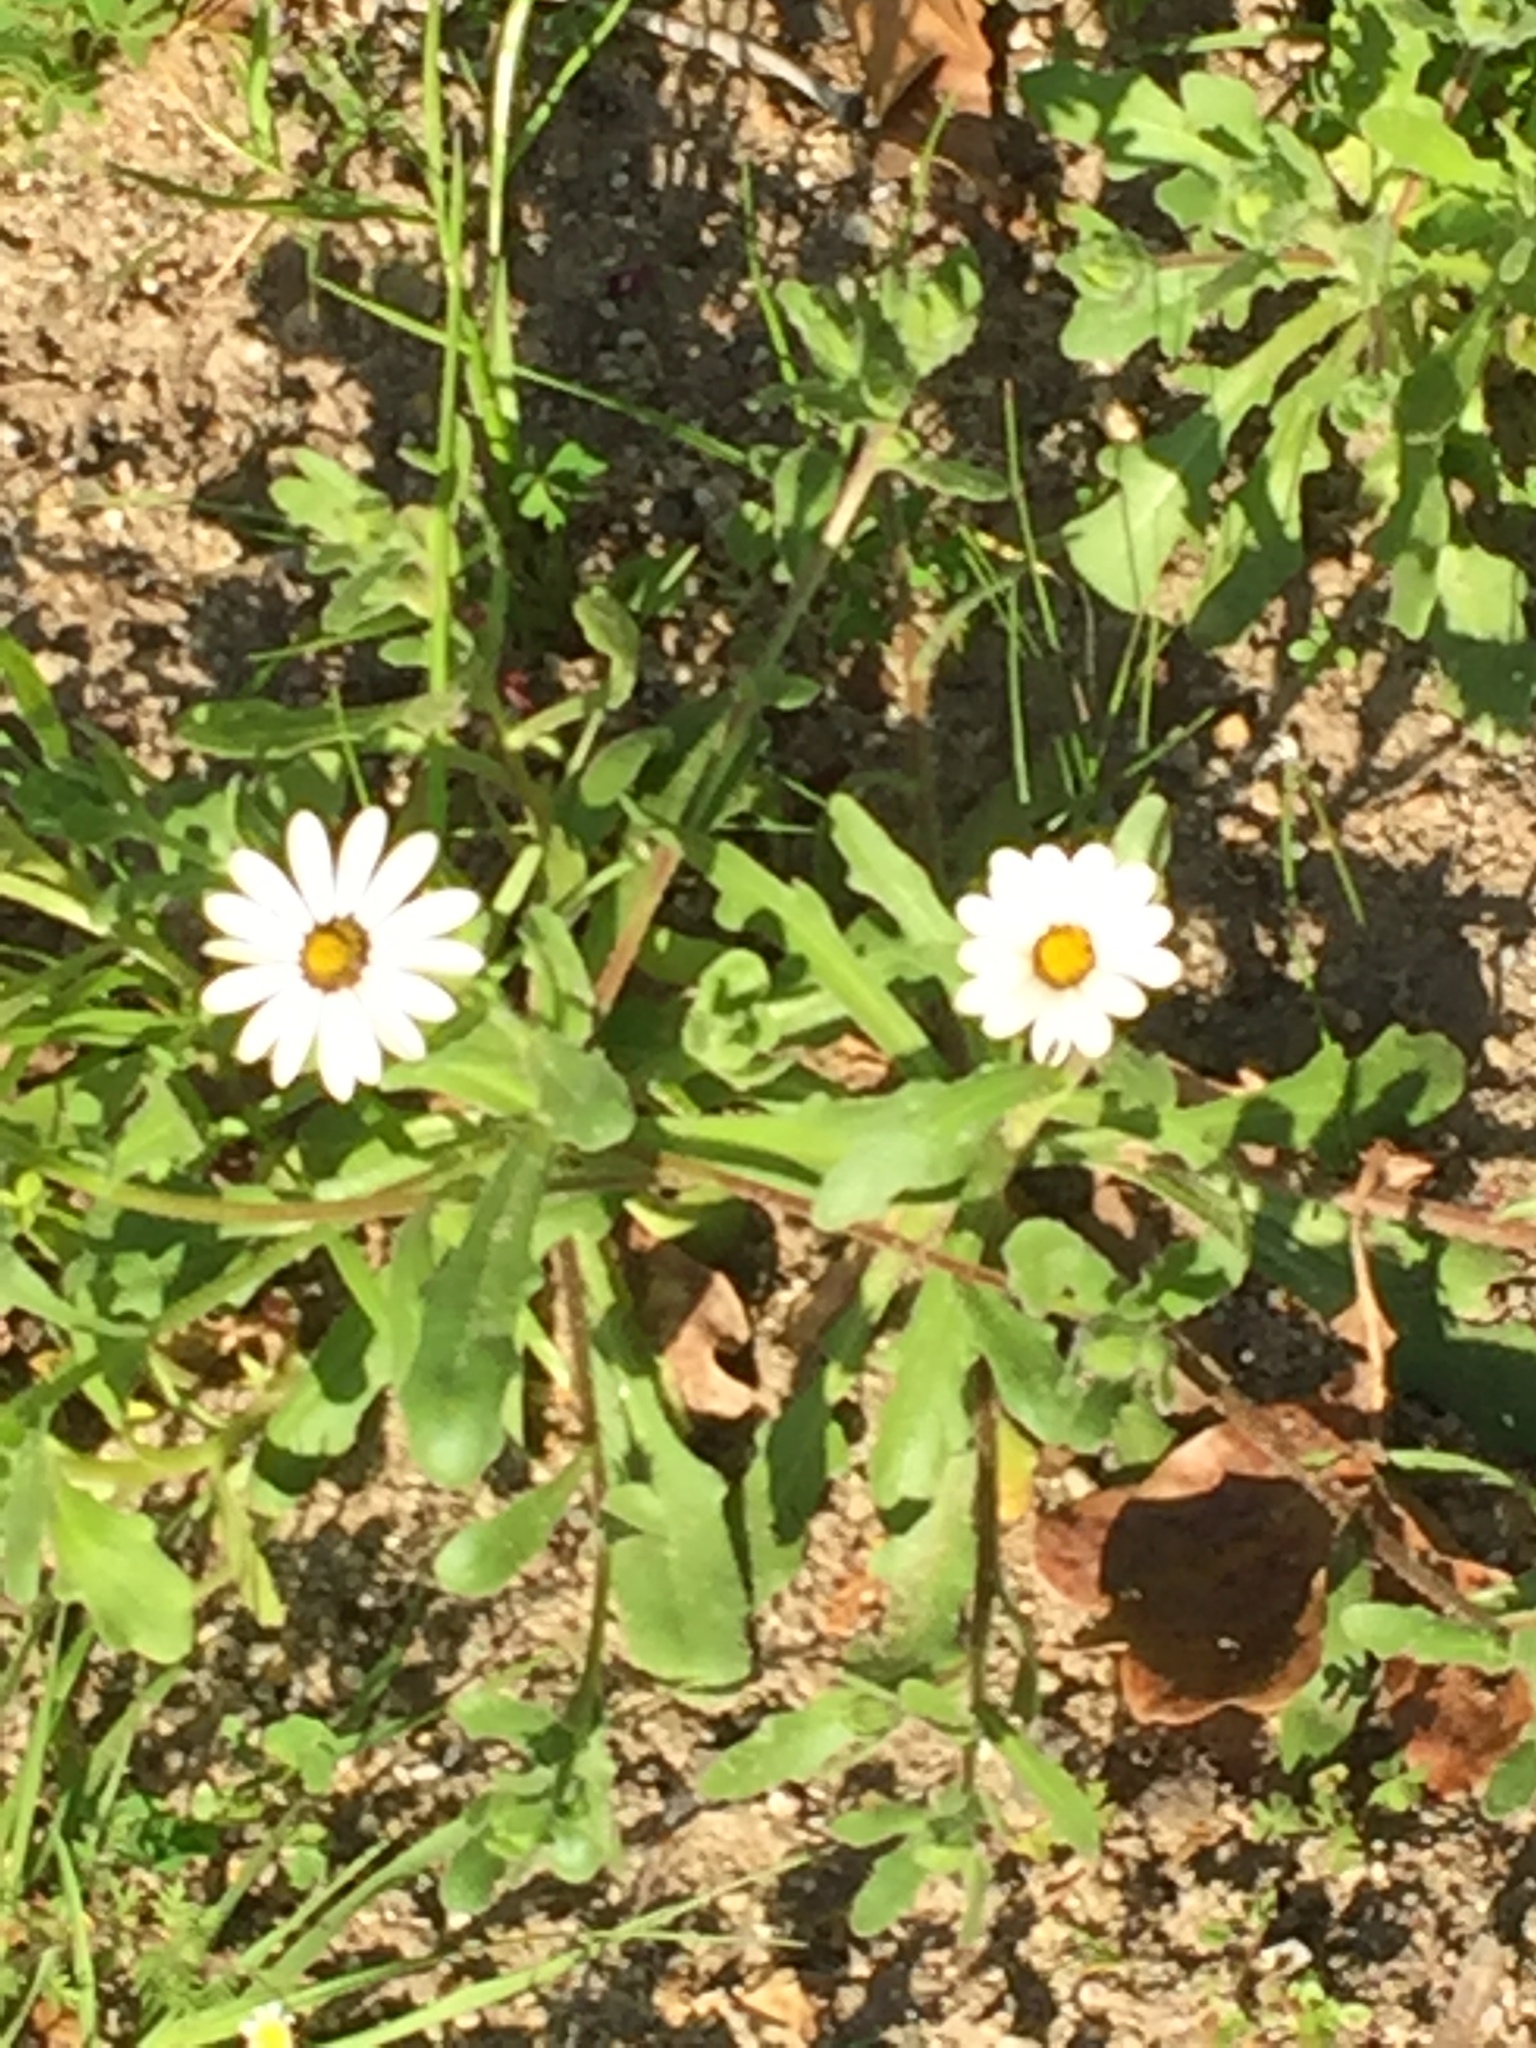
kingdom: Plantae
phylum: Tracheophyta
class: Magnoliopsida
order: Asterales
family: Asteraceae
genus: Dimorphotheca
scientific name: Dimorphotheca pluvialis
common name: Weather prophet
